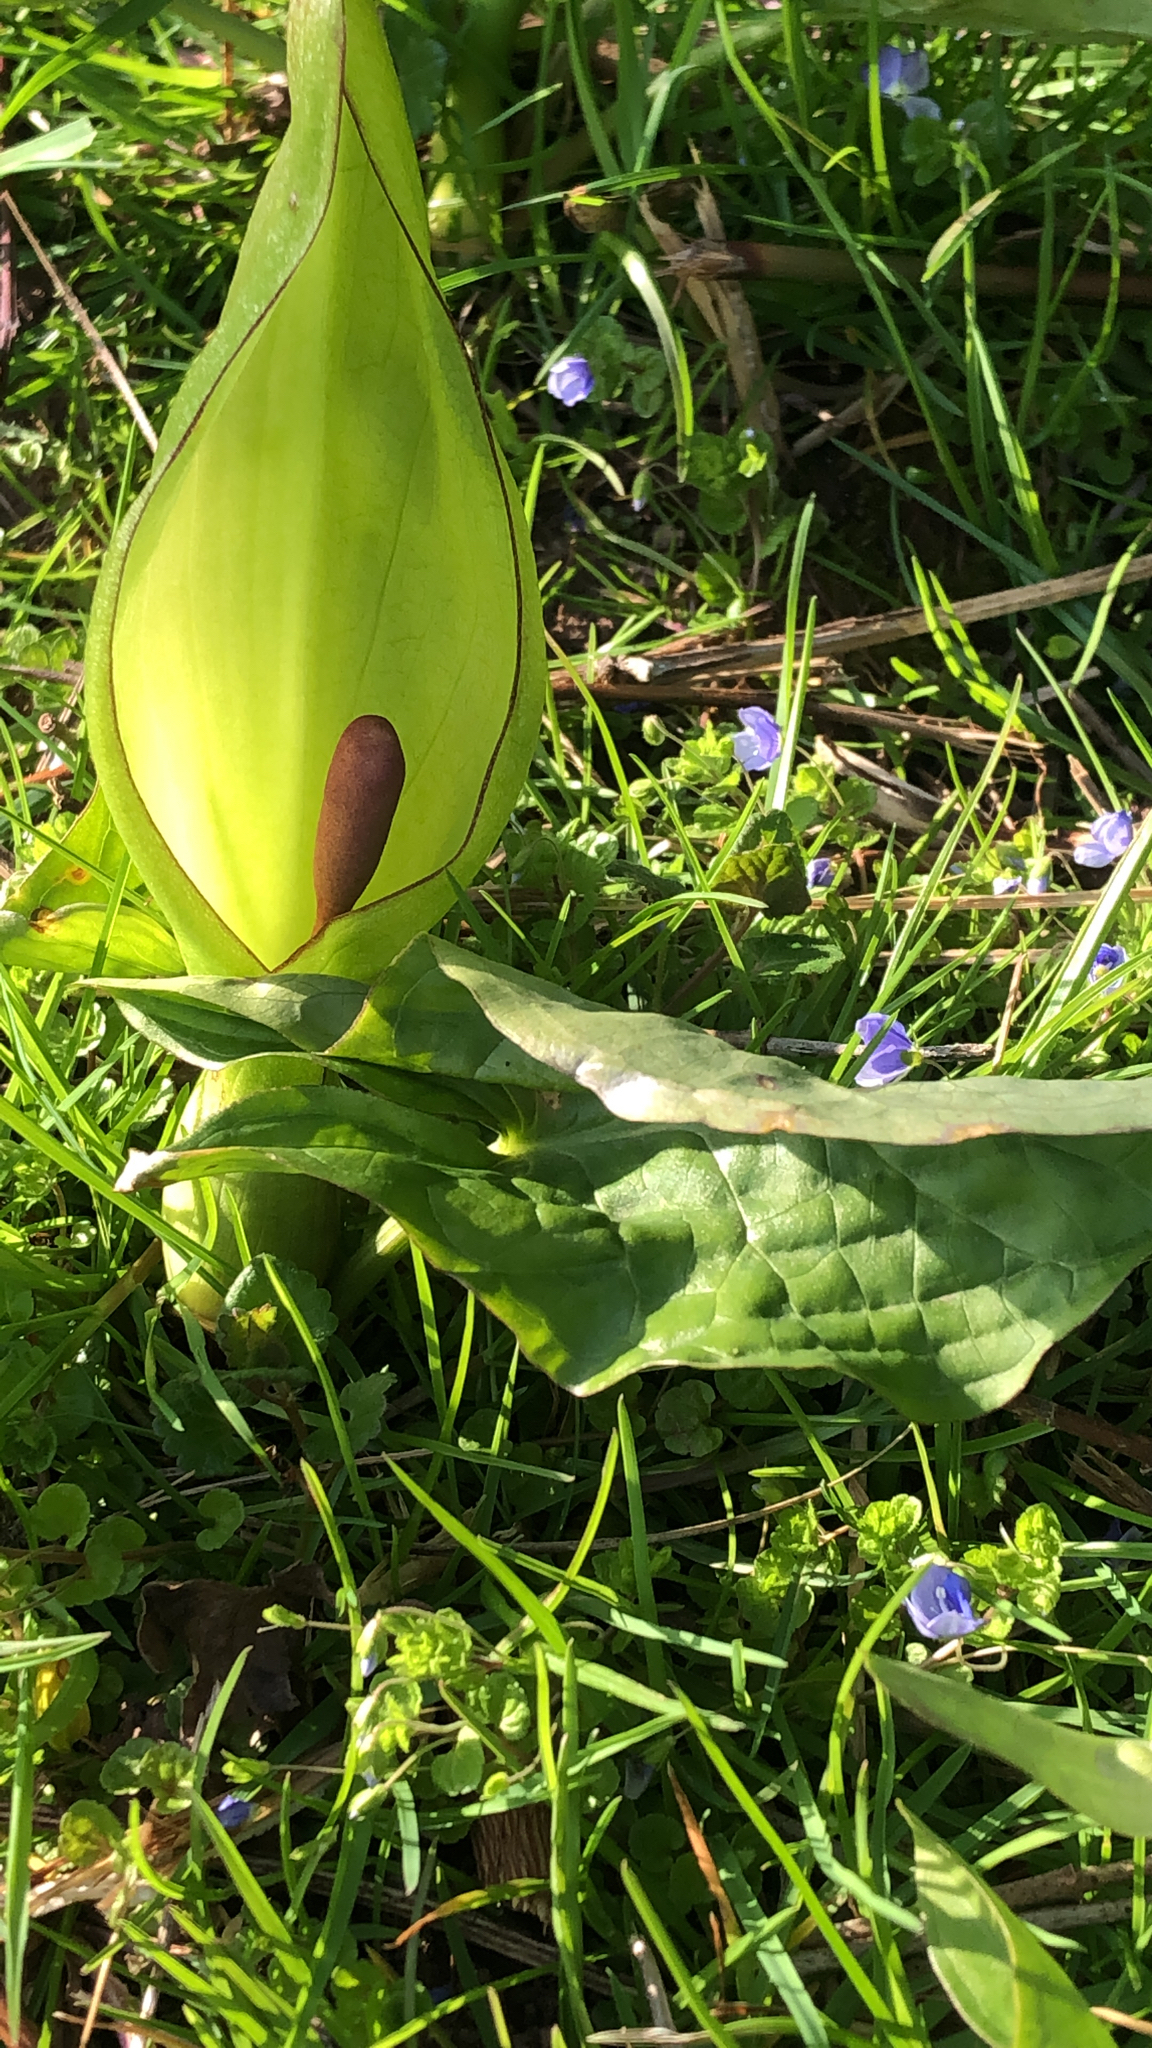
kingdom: Plantae
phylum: Tracheophyta
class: Liliopsida
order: Alismatales
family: Araceae
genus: Arum
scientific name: Arum maculatum
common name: Lords-and-ladies
